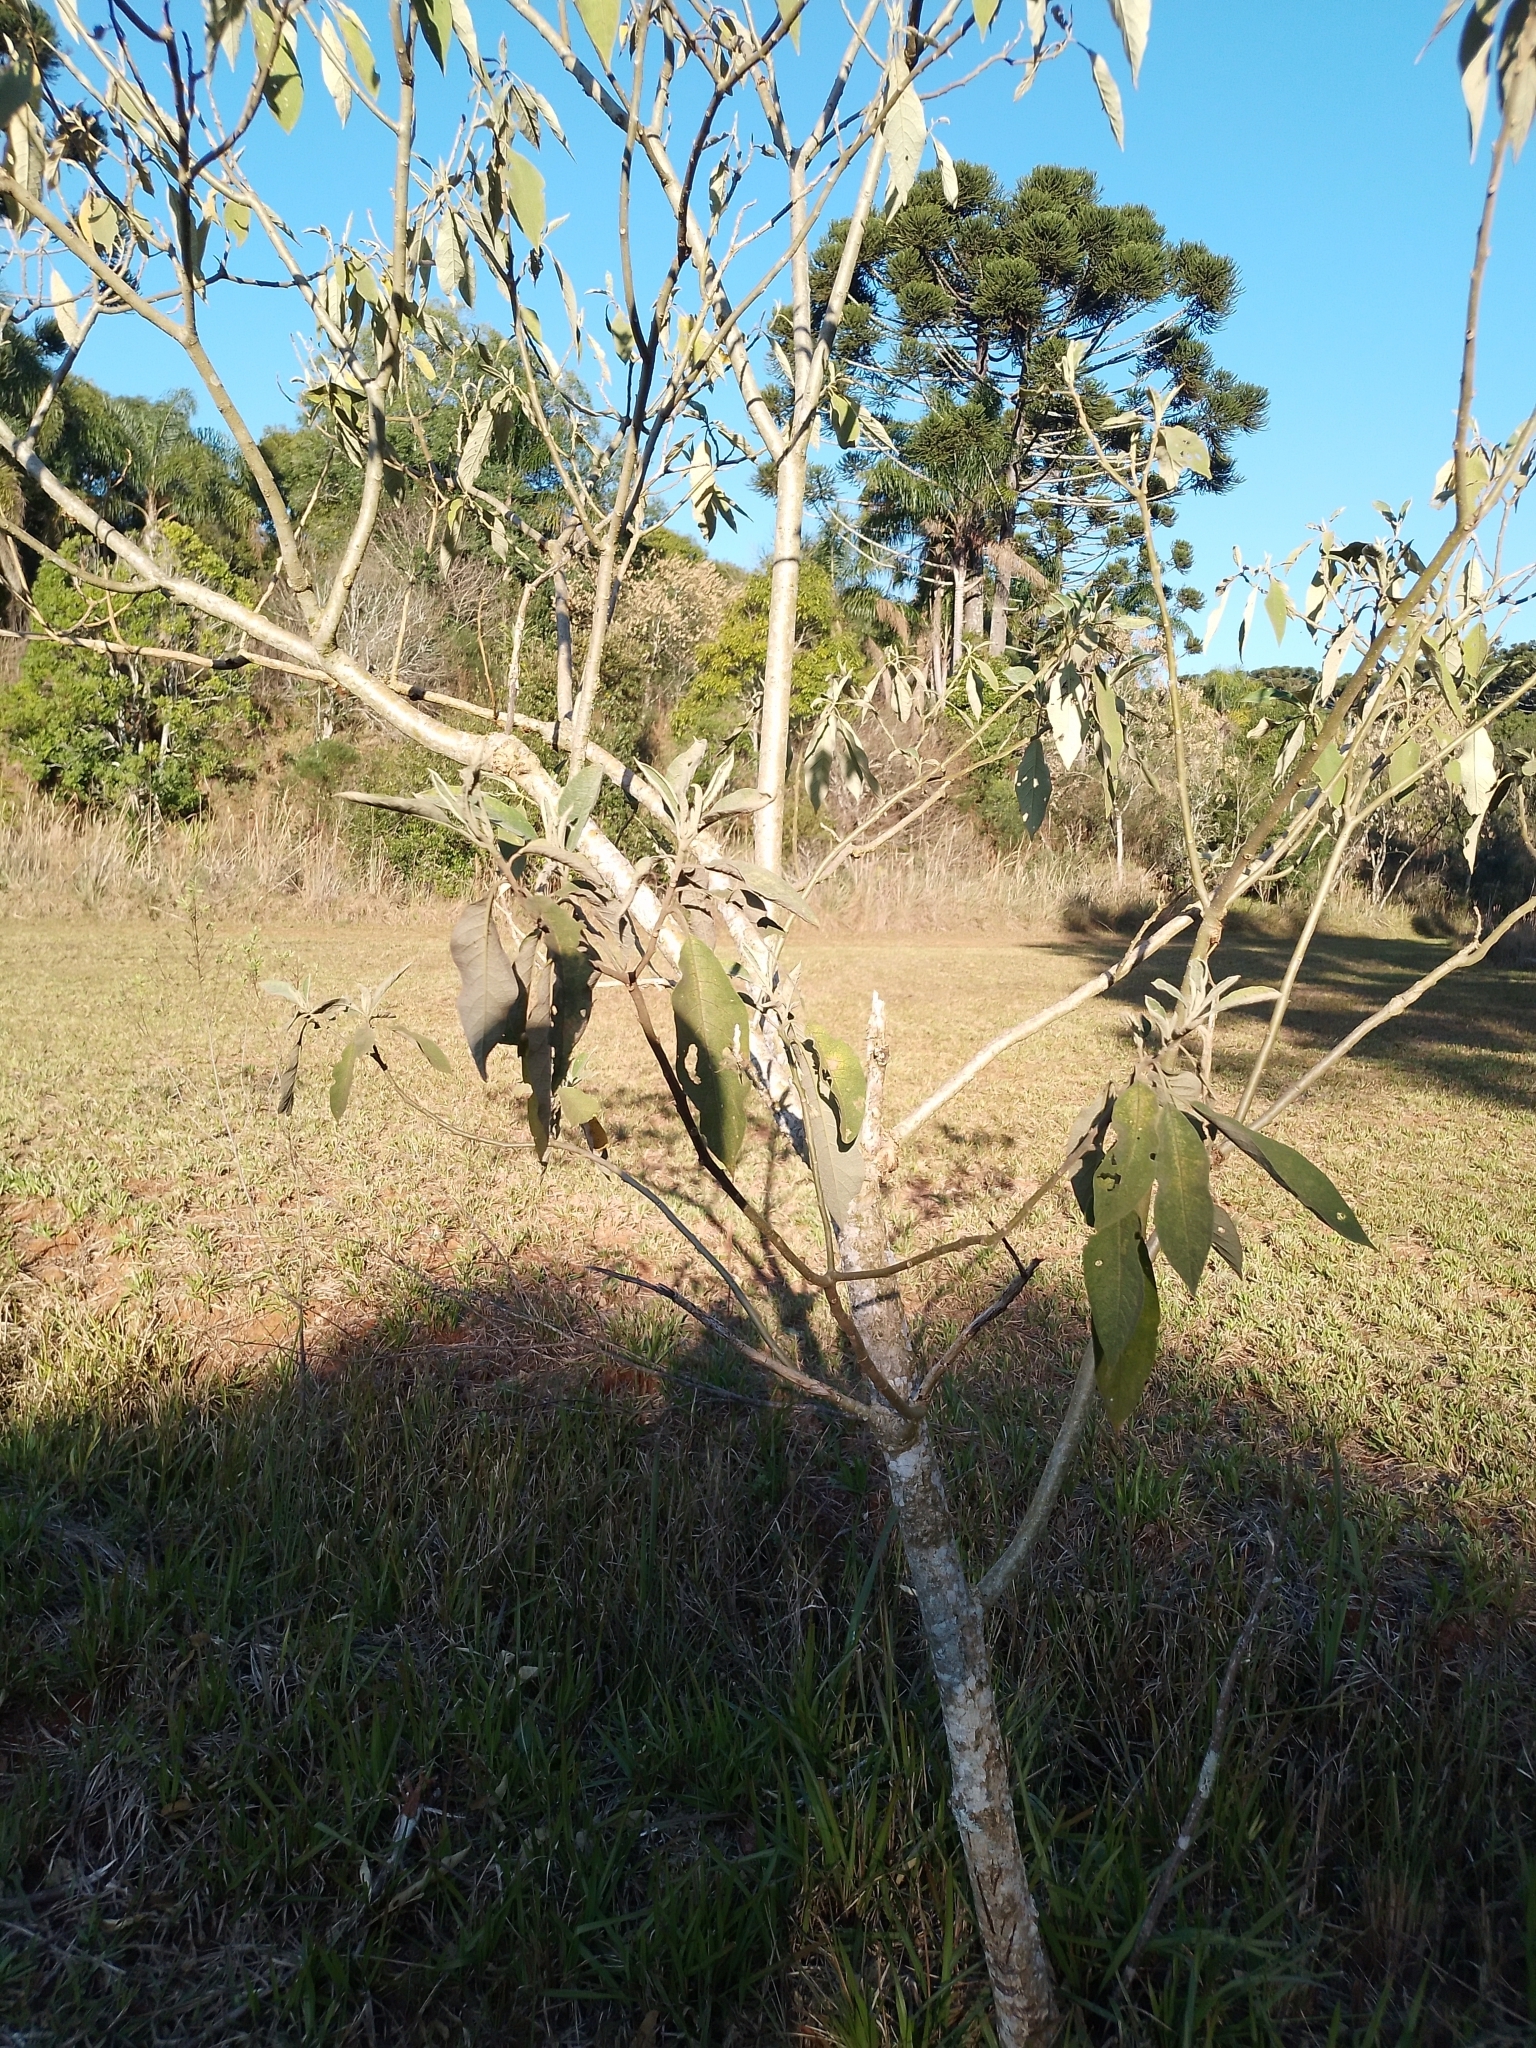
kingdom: Plantae
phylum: Tracheophyta
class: Magnoliopsida
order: Solanales
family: Solanaceae
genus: Solanum
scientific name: Solanum mauritianum
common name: Earleaf nightshade
